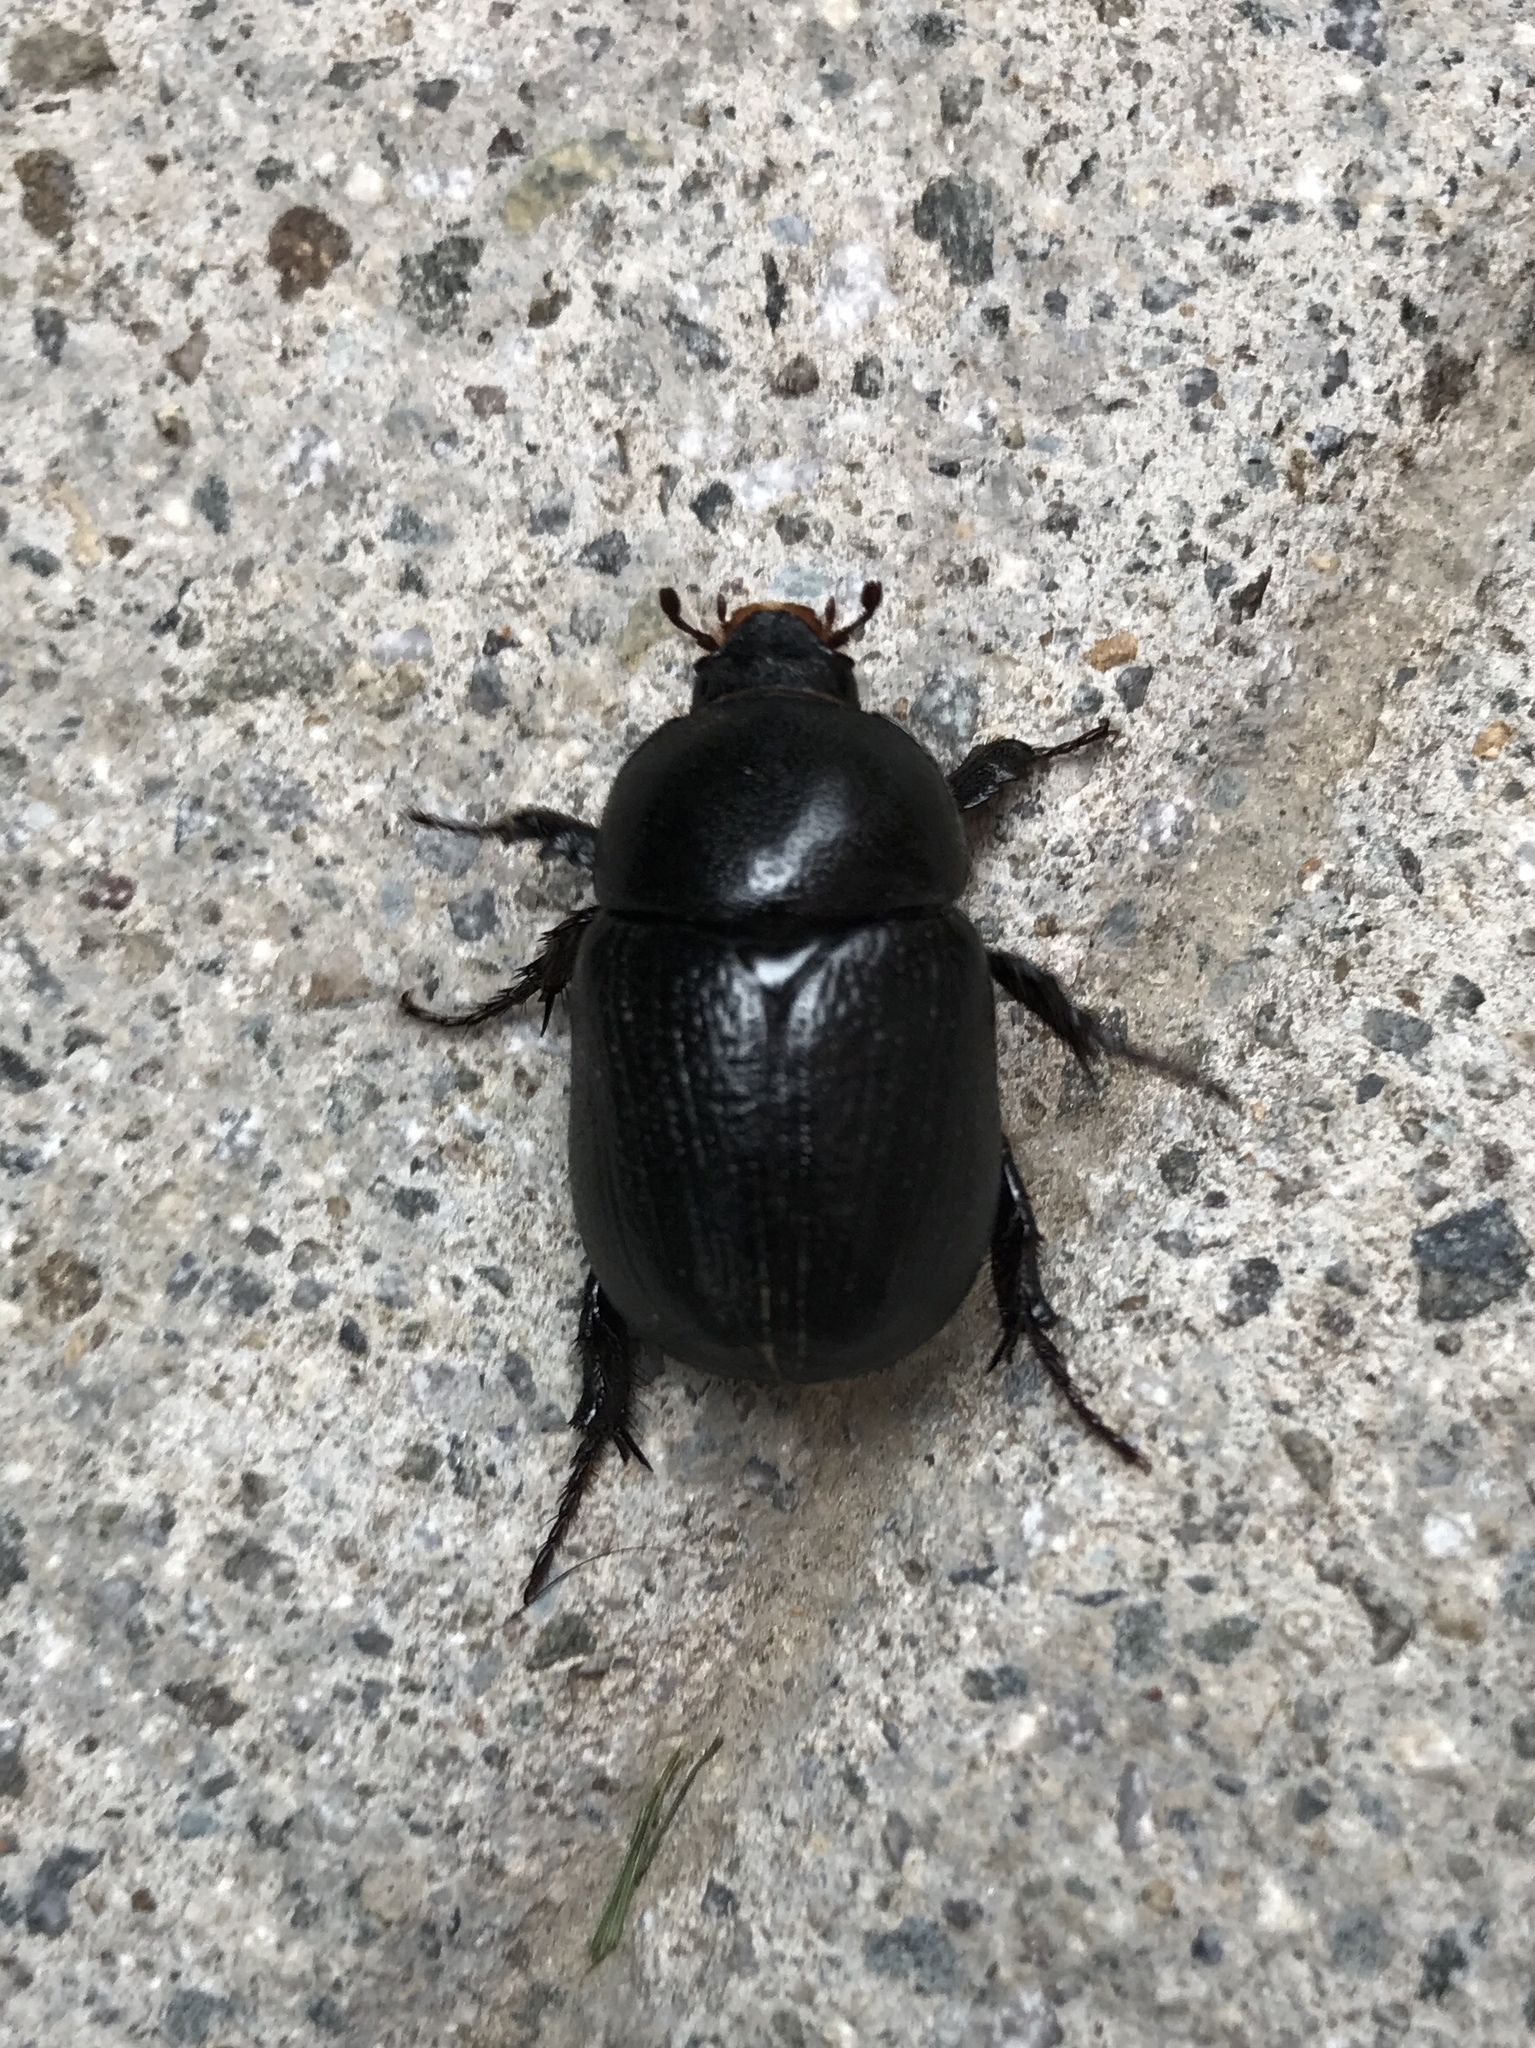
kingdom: Animalia
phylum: Arthropoda
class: Insecta
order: Coleoptera
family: Scarabaeidae
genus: Pentodon
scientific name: Pentodon bidens
